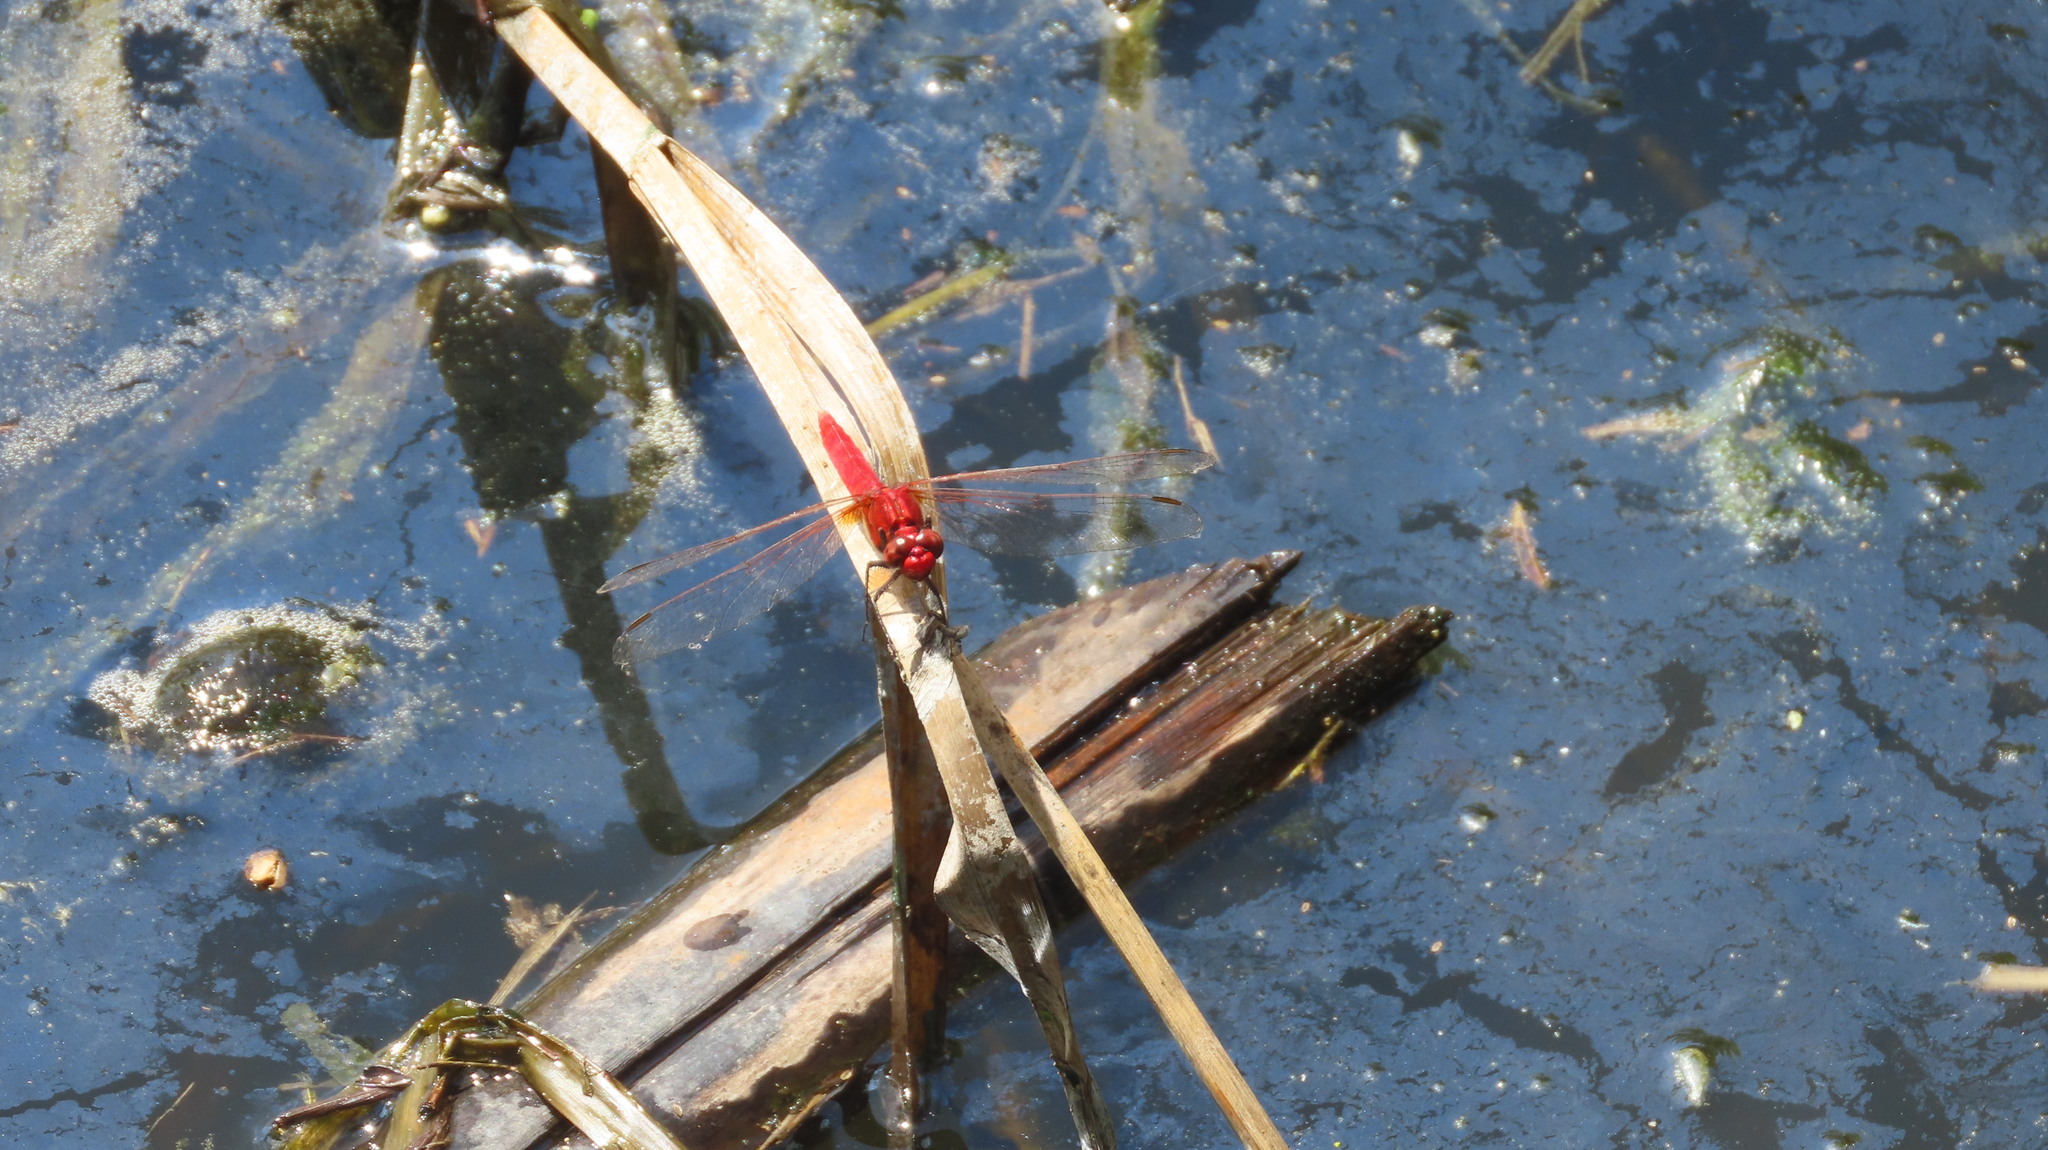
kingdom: Animalia
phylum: Arthropoda
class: Insecta
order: Odonata
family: Libellulidae
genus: Rhodothemis
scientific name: Rhodothemis rufa
